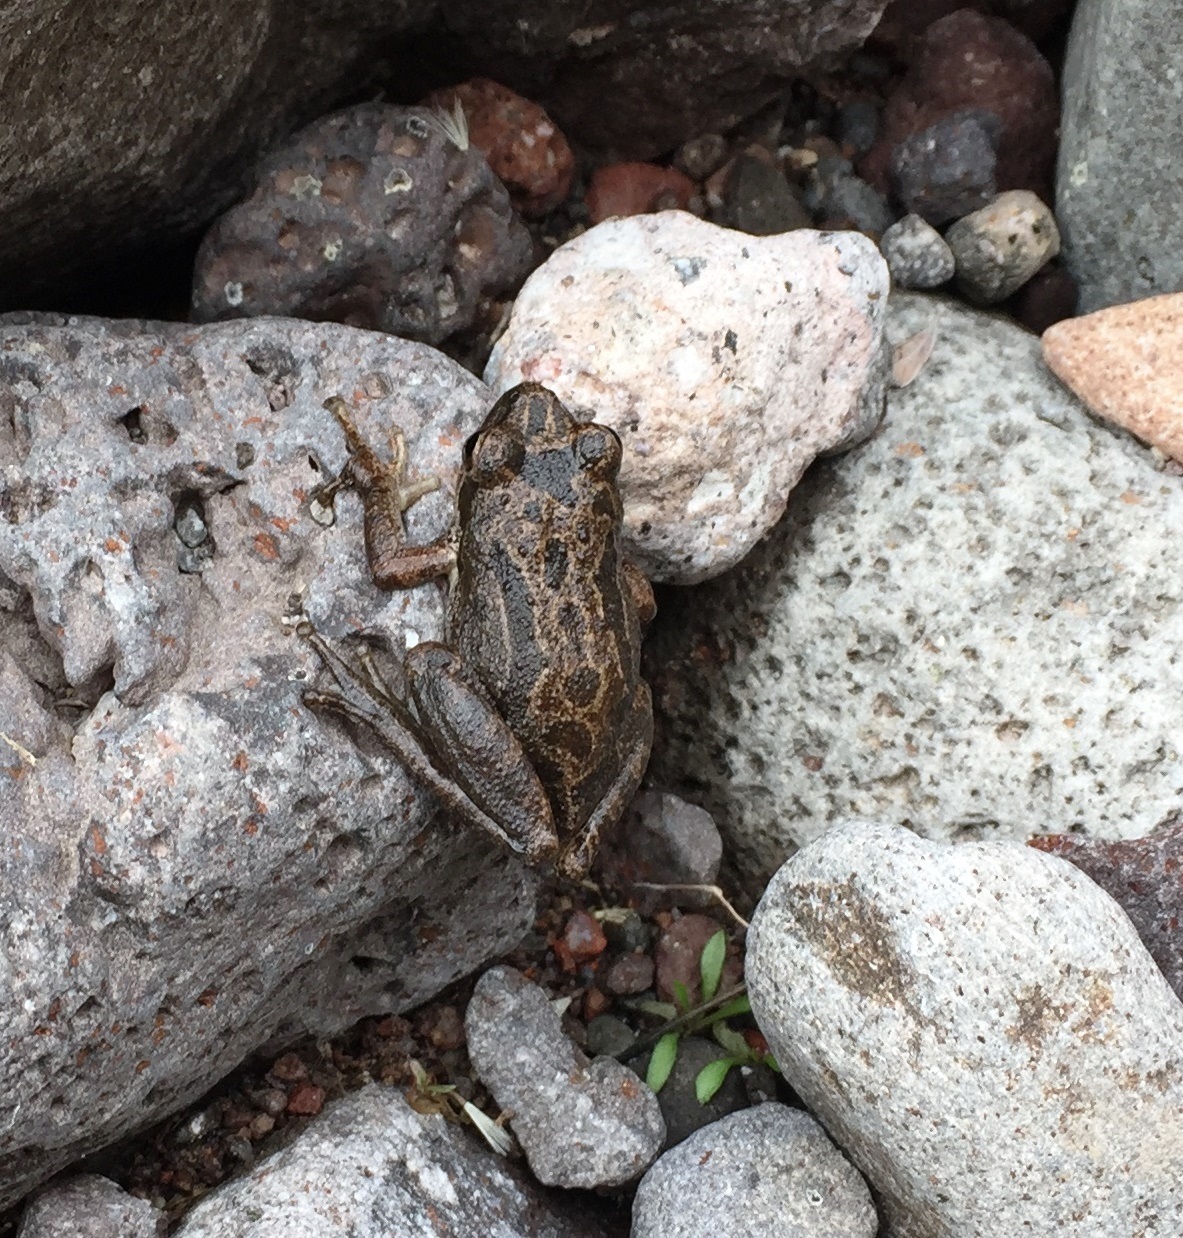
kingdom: Animalia
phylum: Chordata
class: Amphibia
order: Anura
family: Hylidae
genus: Pseudacris
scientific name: Pseudacris regilla
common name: Pacific chorus frog
